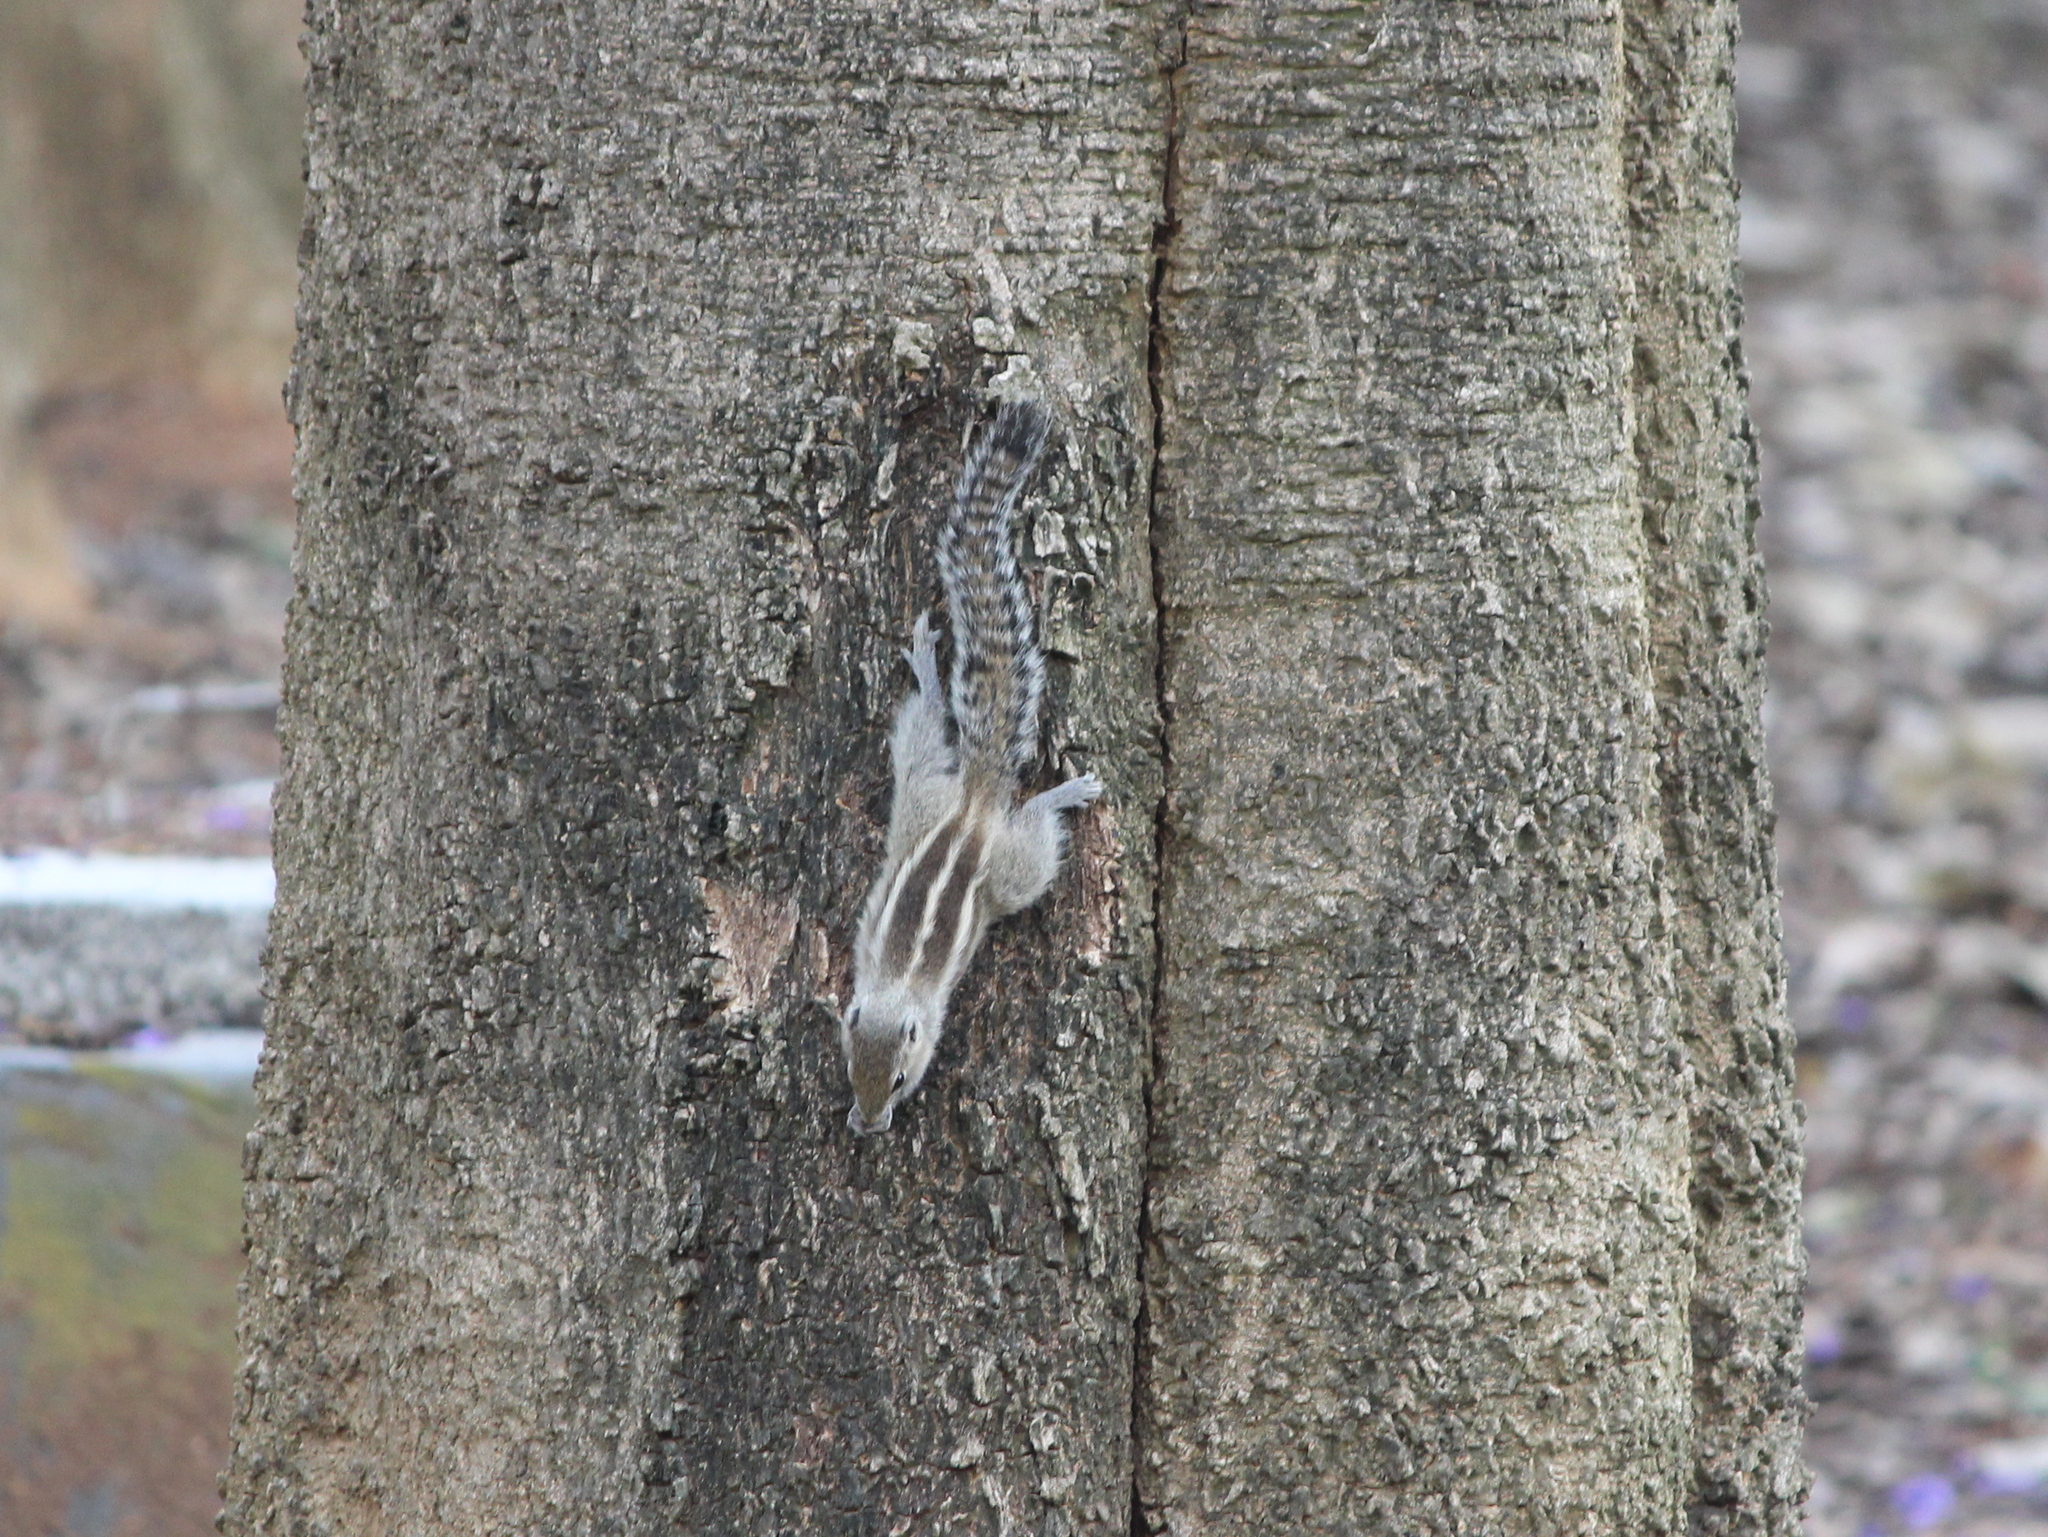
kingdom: Animalia
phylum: Chordata
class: Mammalia
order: Rodentia
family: Sciuridae
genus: Funambulus
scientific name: Funambulus palmarum
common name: Indian palm squirrel
